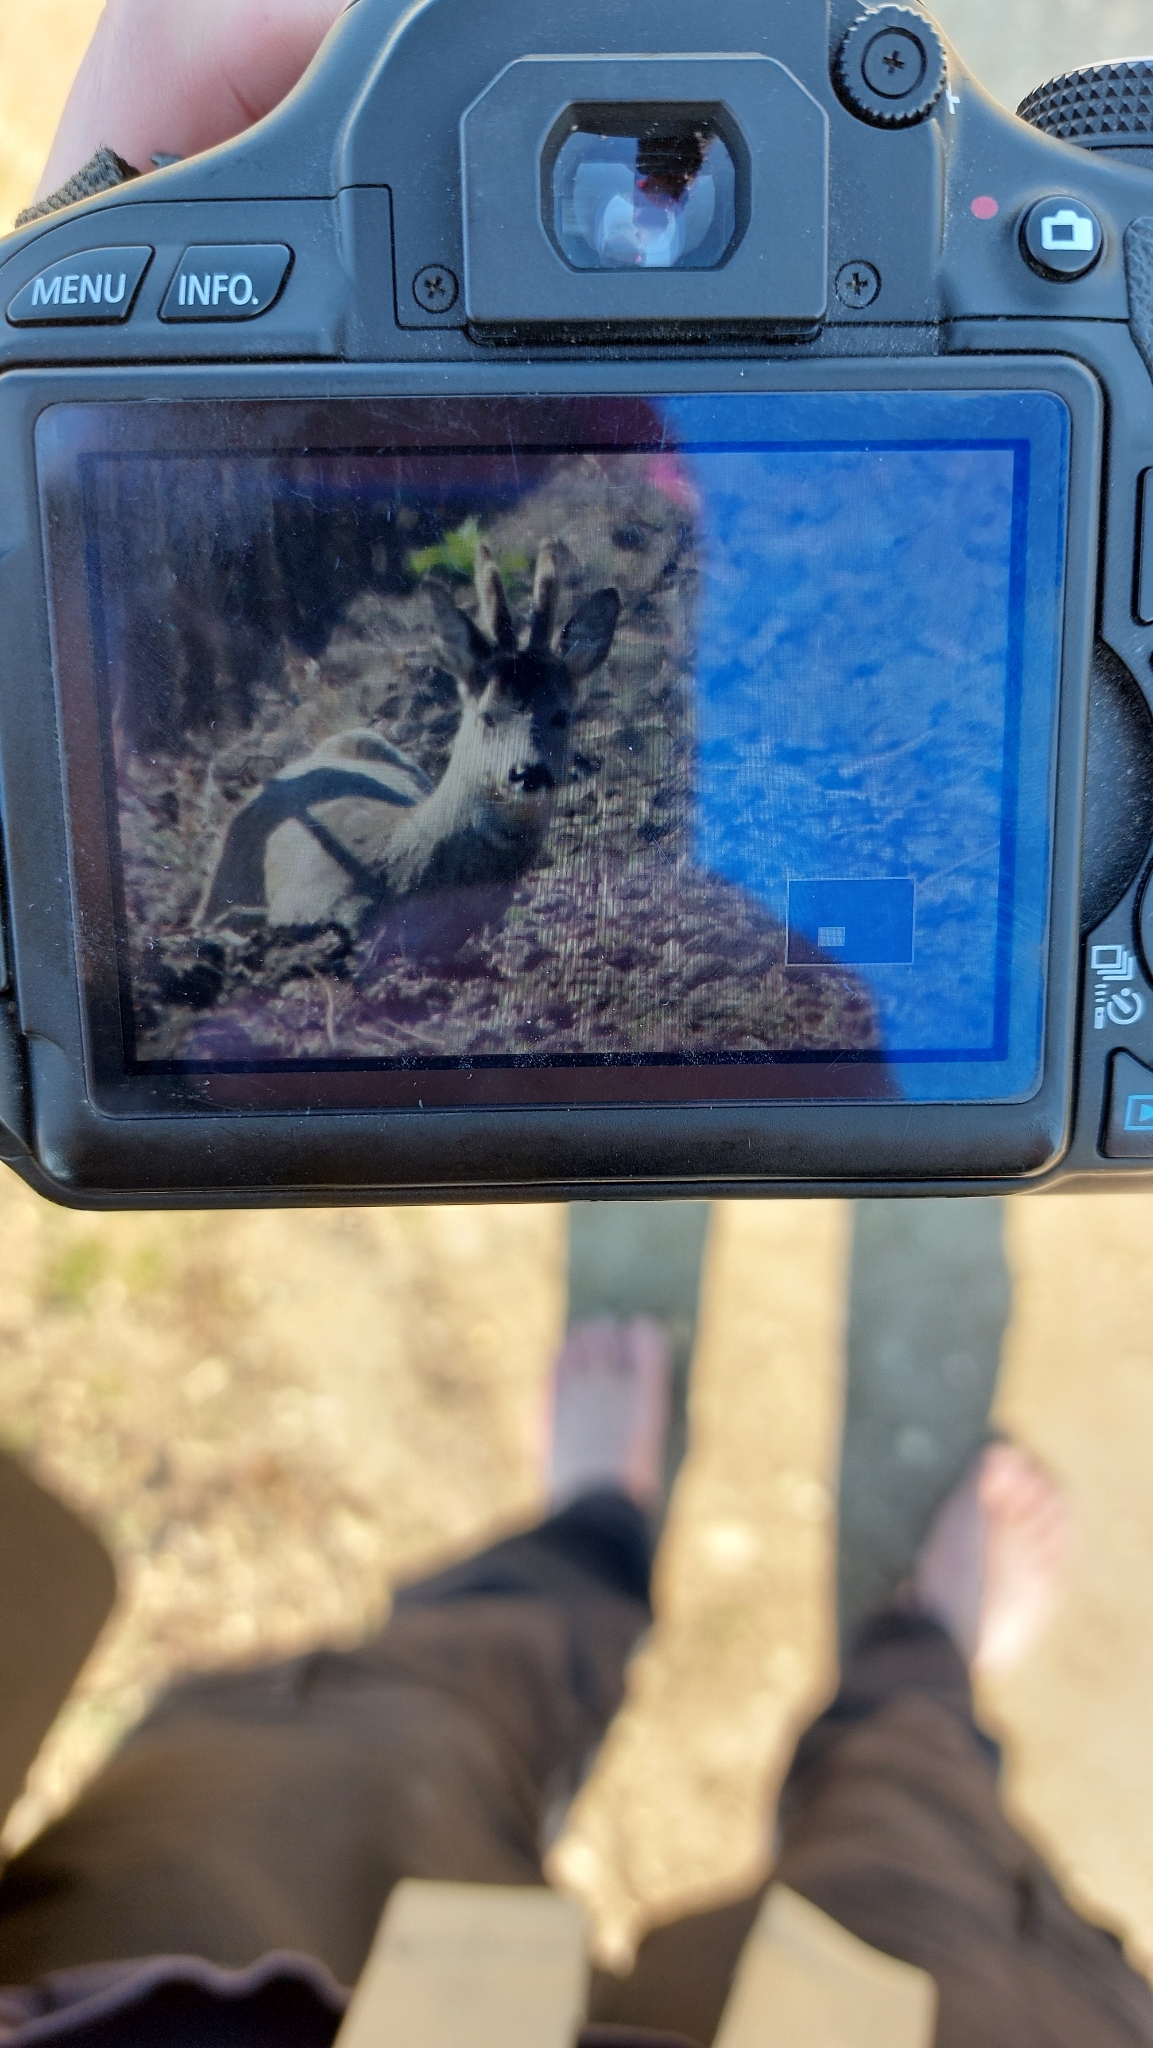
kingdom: Animalia
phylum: Chordata
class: Mammalia
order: Artiodactyla
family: Cervidae
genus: Capreolus
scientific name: Capreolus capreolus
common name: Western roe deer
